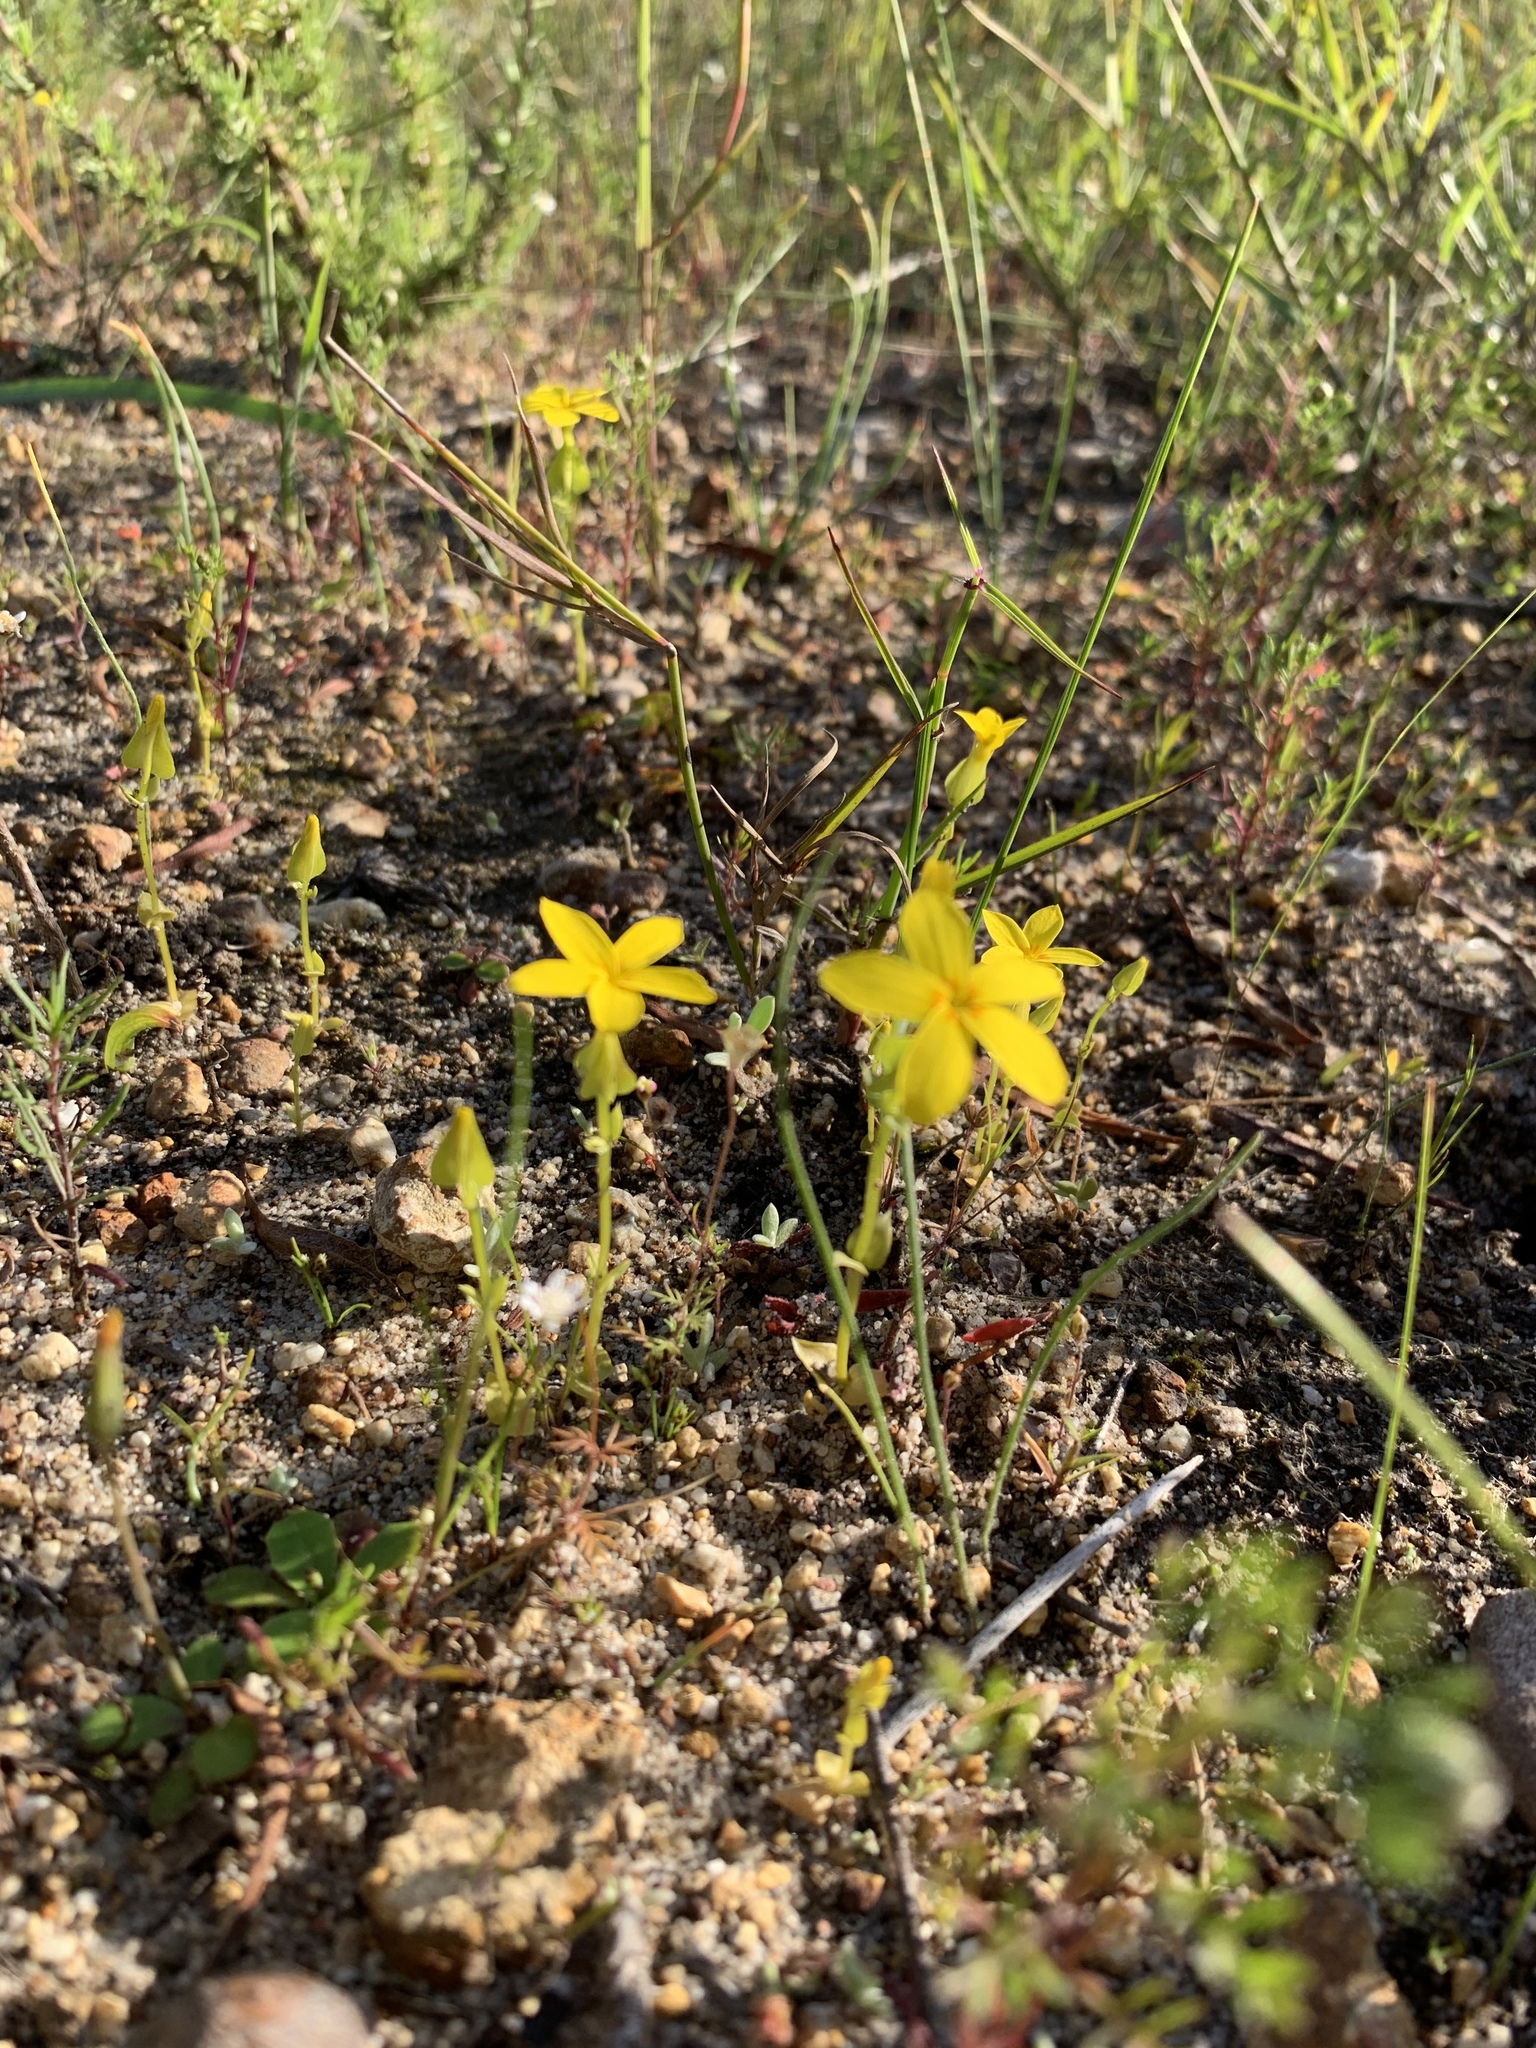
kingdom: Plantae
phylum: Tracheophyta
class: Magnoliopsida
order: Gentianales
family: Gentianaceae
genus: Sebaea
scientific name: Sebaea exacoides
